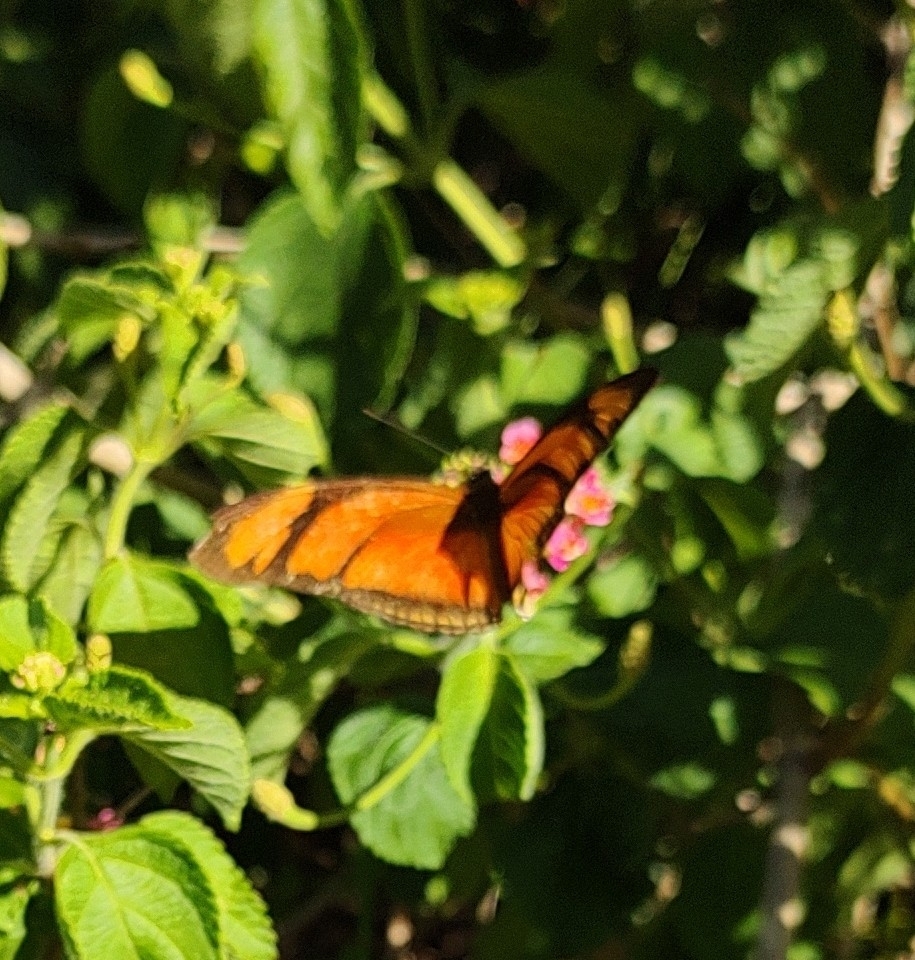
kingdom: Animalia
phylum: Arthropoda
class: Insecta
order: Lepidoptera
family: Nymphalidae
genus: Dryas
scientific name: Dryas iulia
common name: Flambeau
